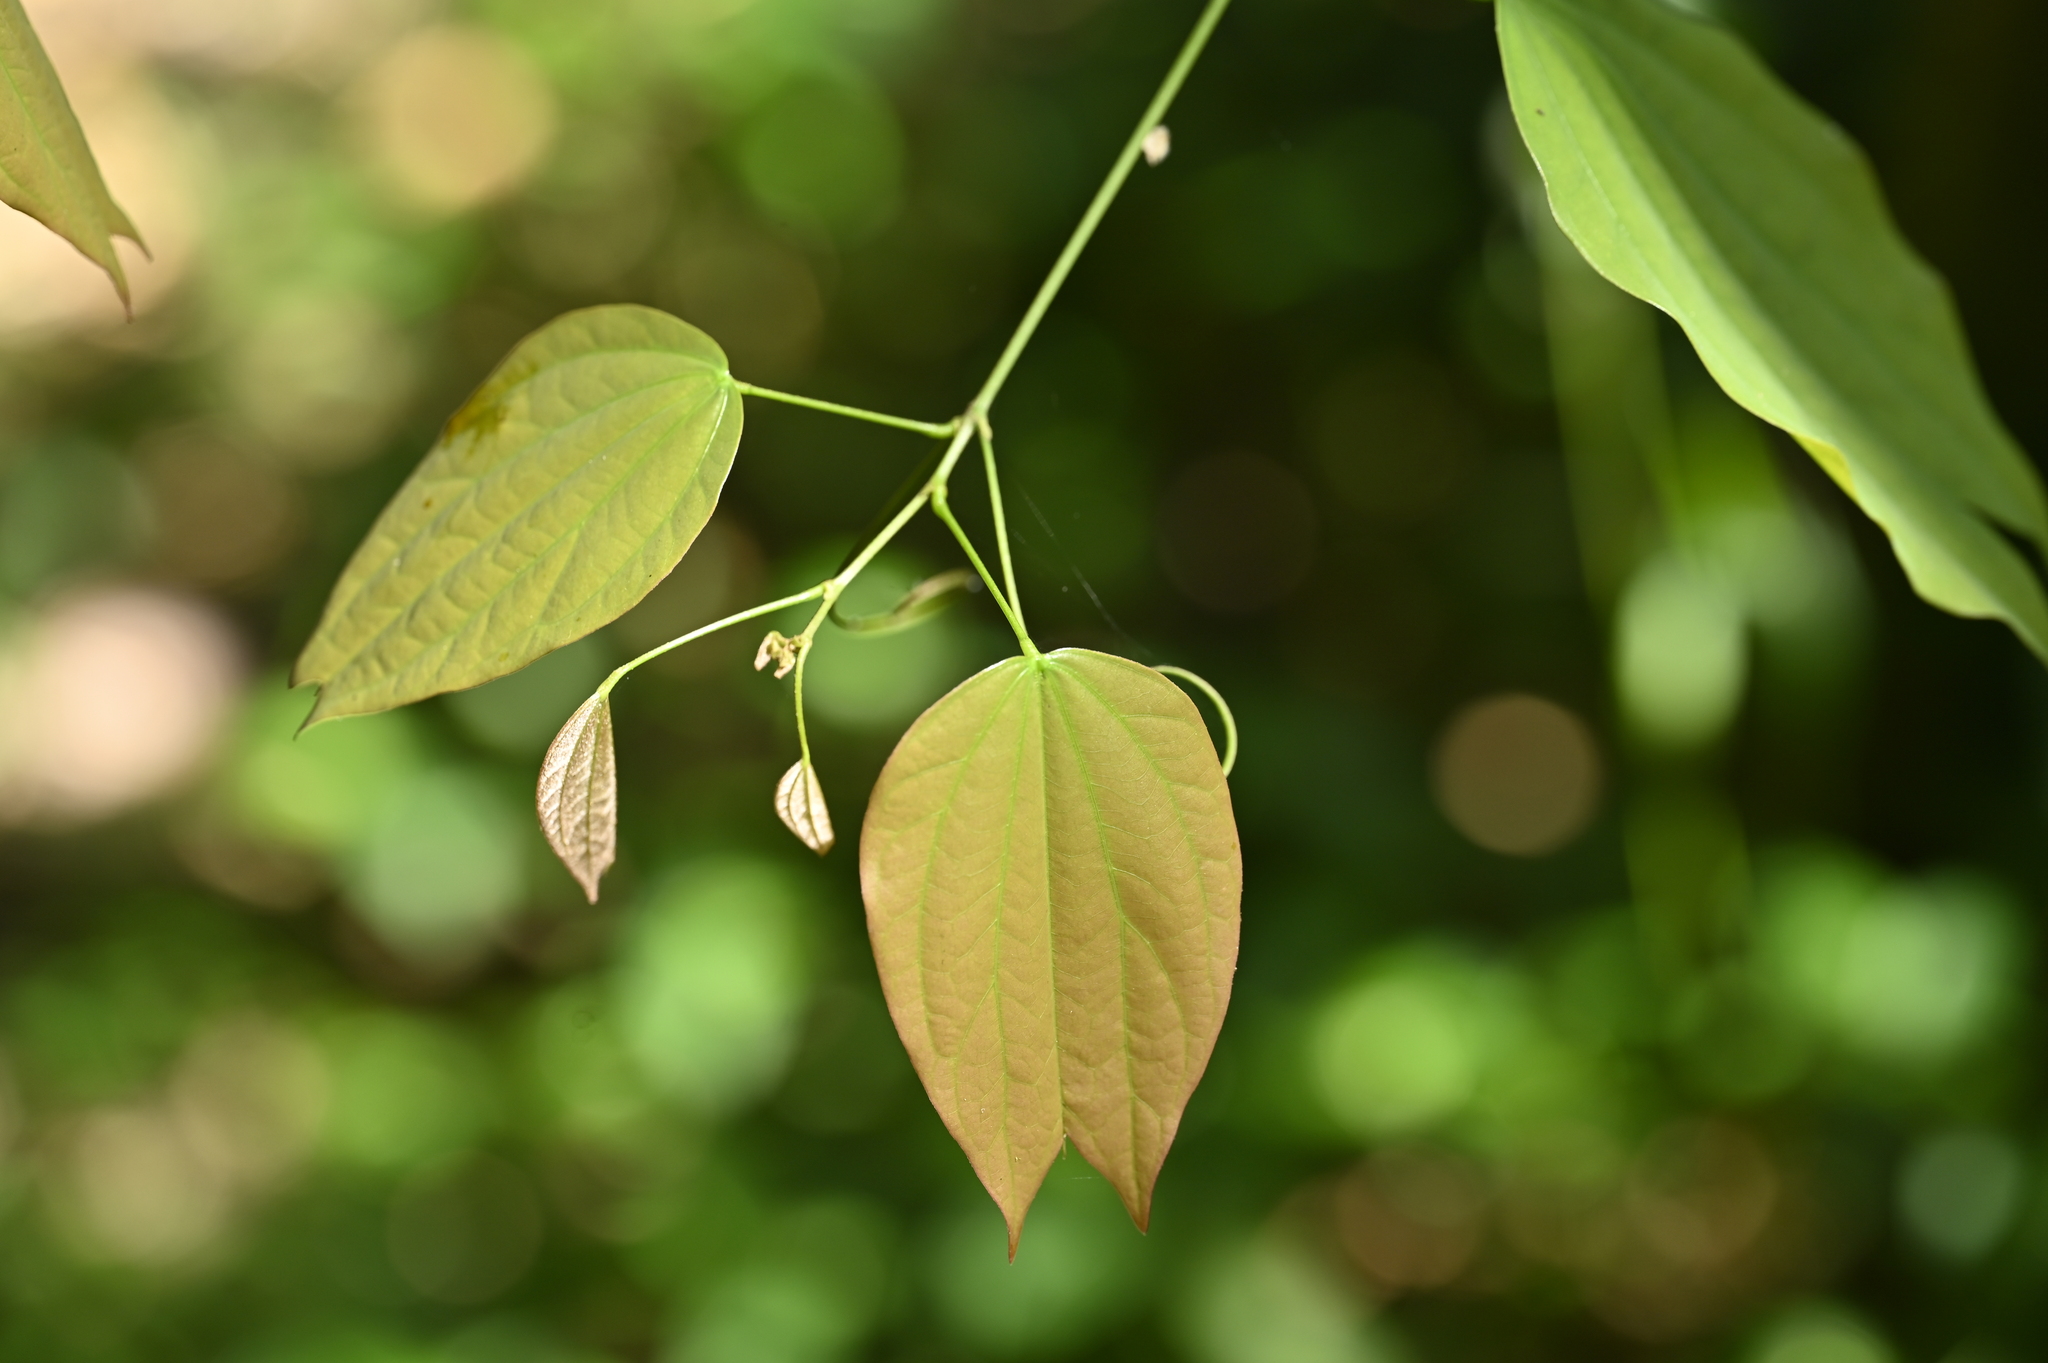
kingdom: Plantae
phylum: Tracheophyta
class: Magnoliopsida
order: Fabales
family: Fabaceae
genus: Phanera
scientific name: Phanera championii
